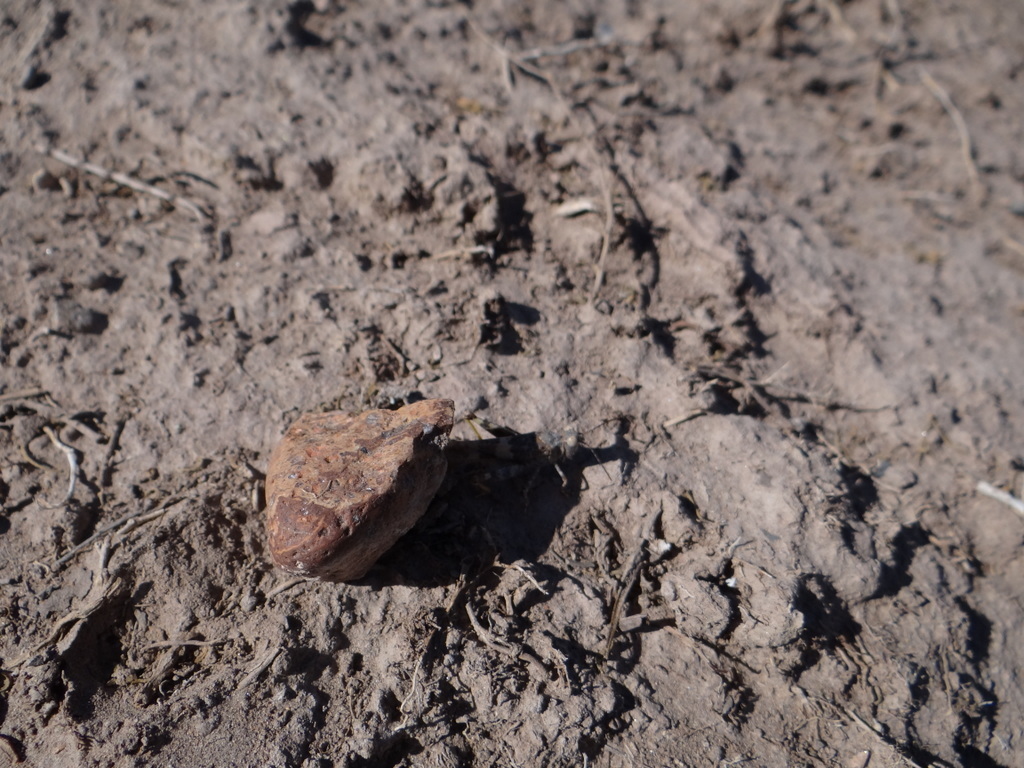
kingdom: Animalia
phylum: Arthropoda
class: Insecta
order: Orthoptera
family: Acrididae
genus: Trimerotropis
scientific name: Trimerotropis pallidipennis
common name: Pallid-winged grasshopper
